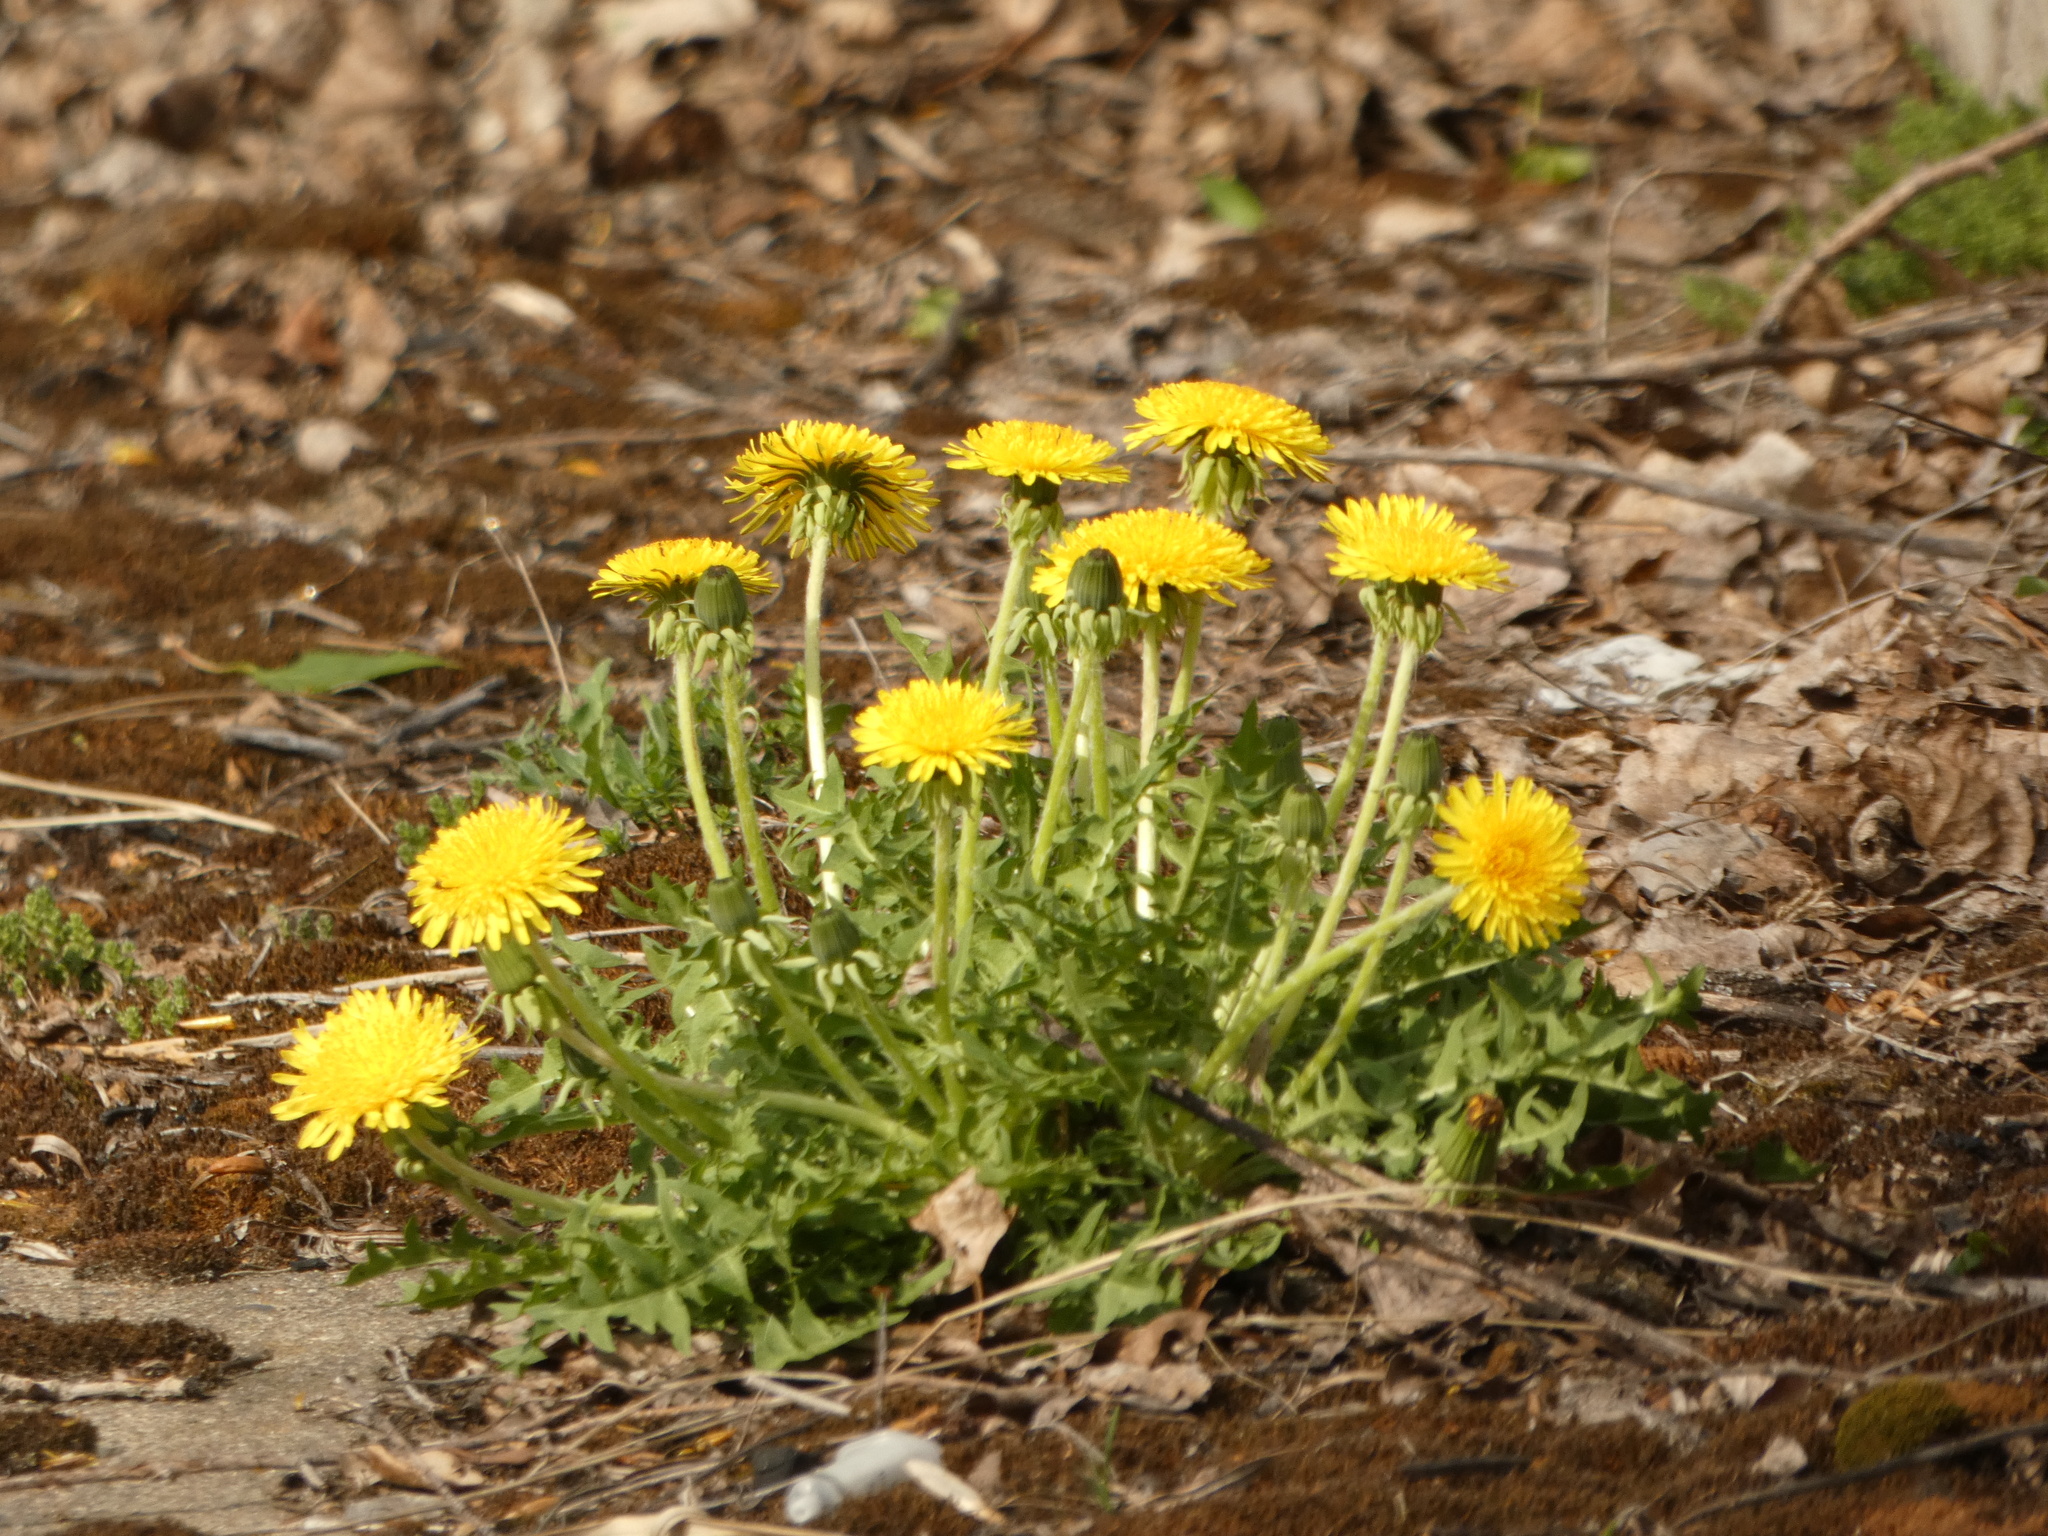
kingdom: Plantae
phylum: Tracheophyta
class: Magnoliopsida
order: Asterales
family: Asteraceae
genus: Taraxacum
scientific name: Taraxacum officinale
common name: Common dandelion
